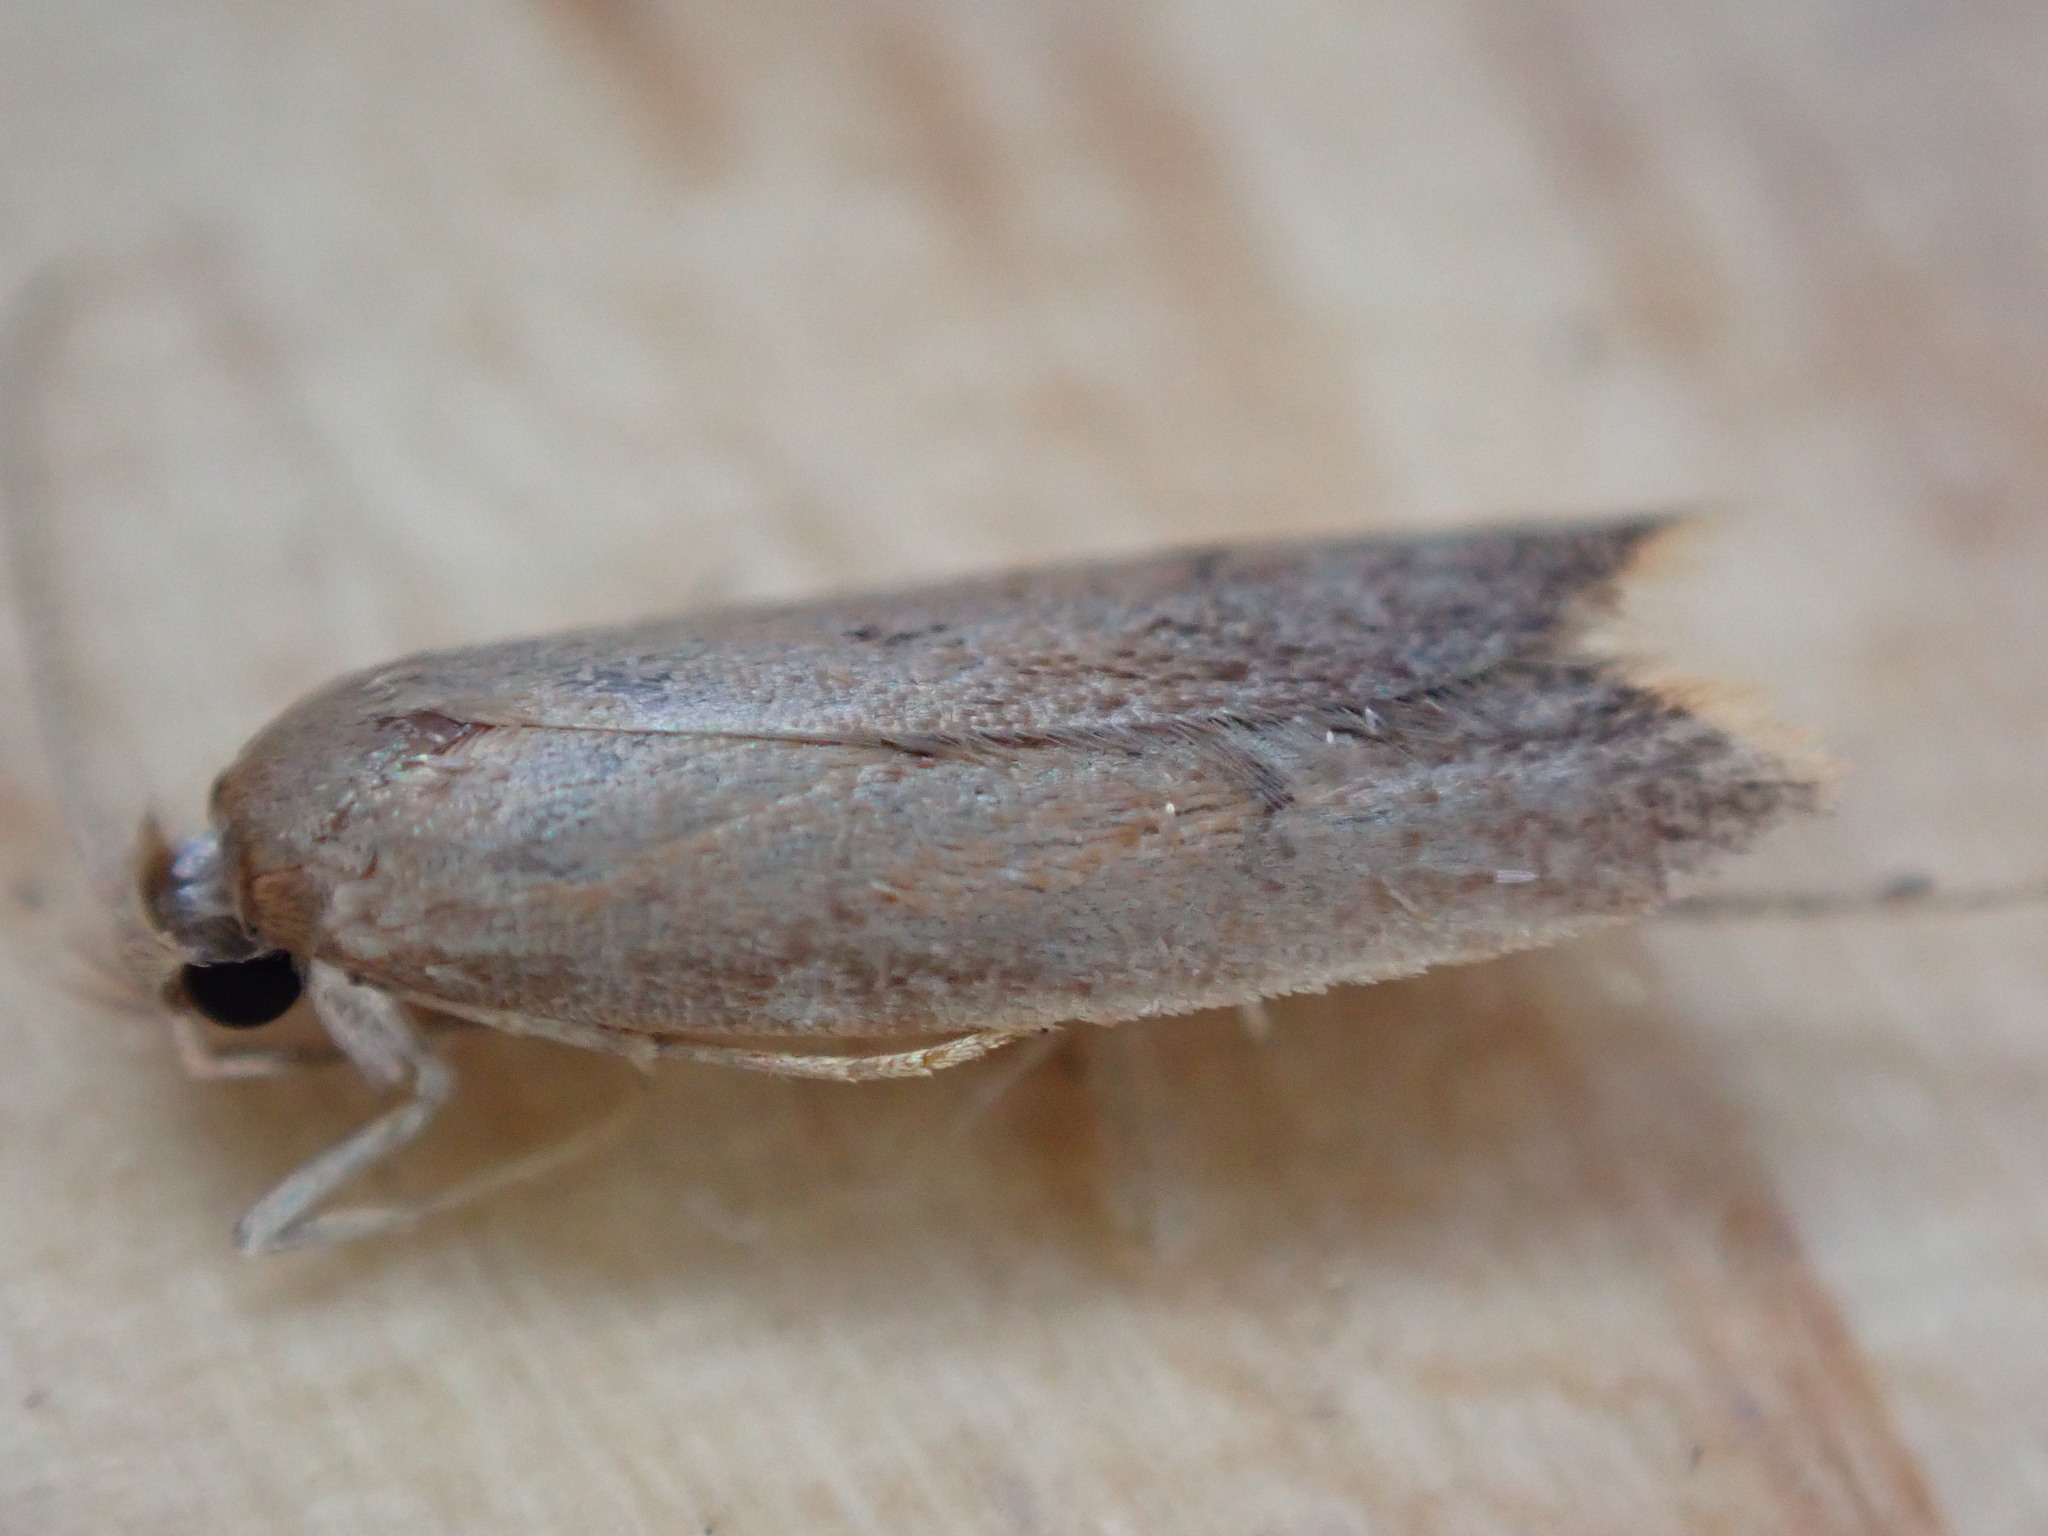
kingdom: Animalia
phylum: Arthropoda
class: Insecta
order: Lepidoptera
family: Oecophoridae
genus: Tachystola
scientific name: Tachystola acroxantha
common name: Ruddy streak
